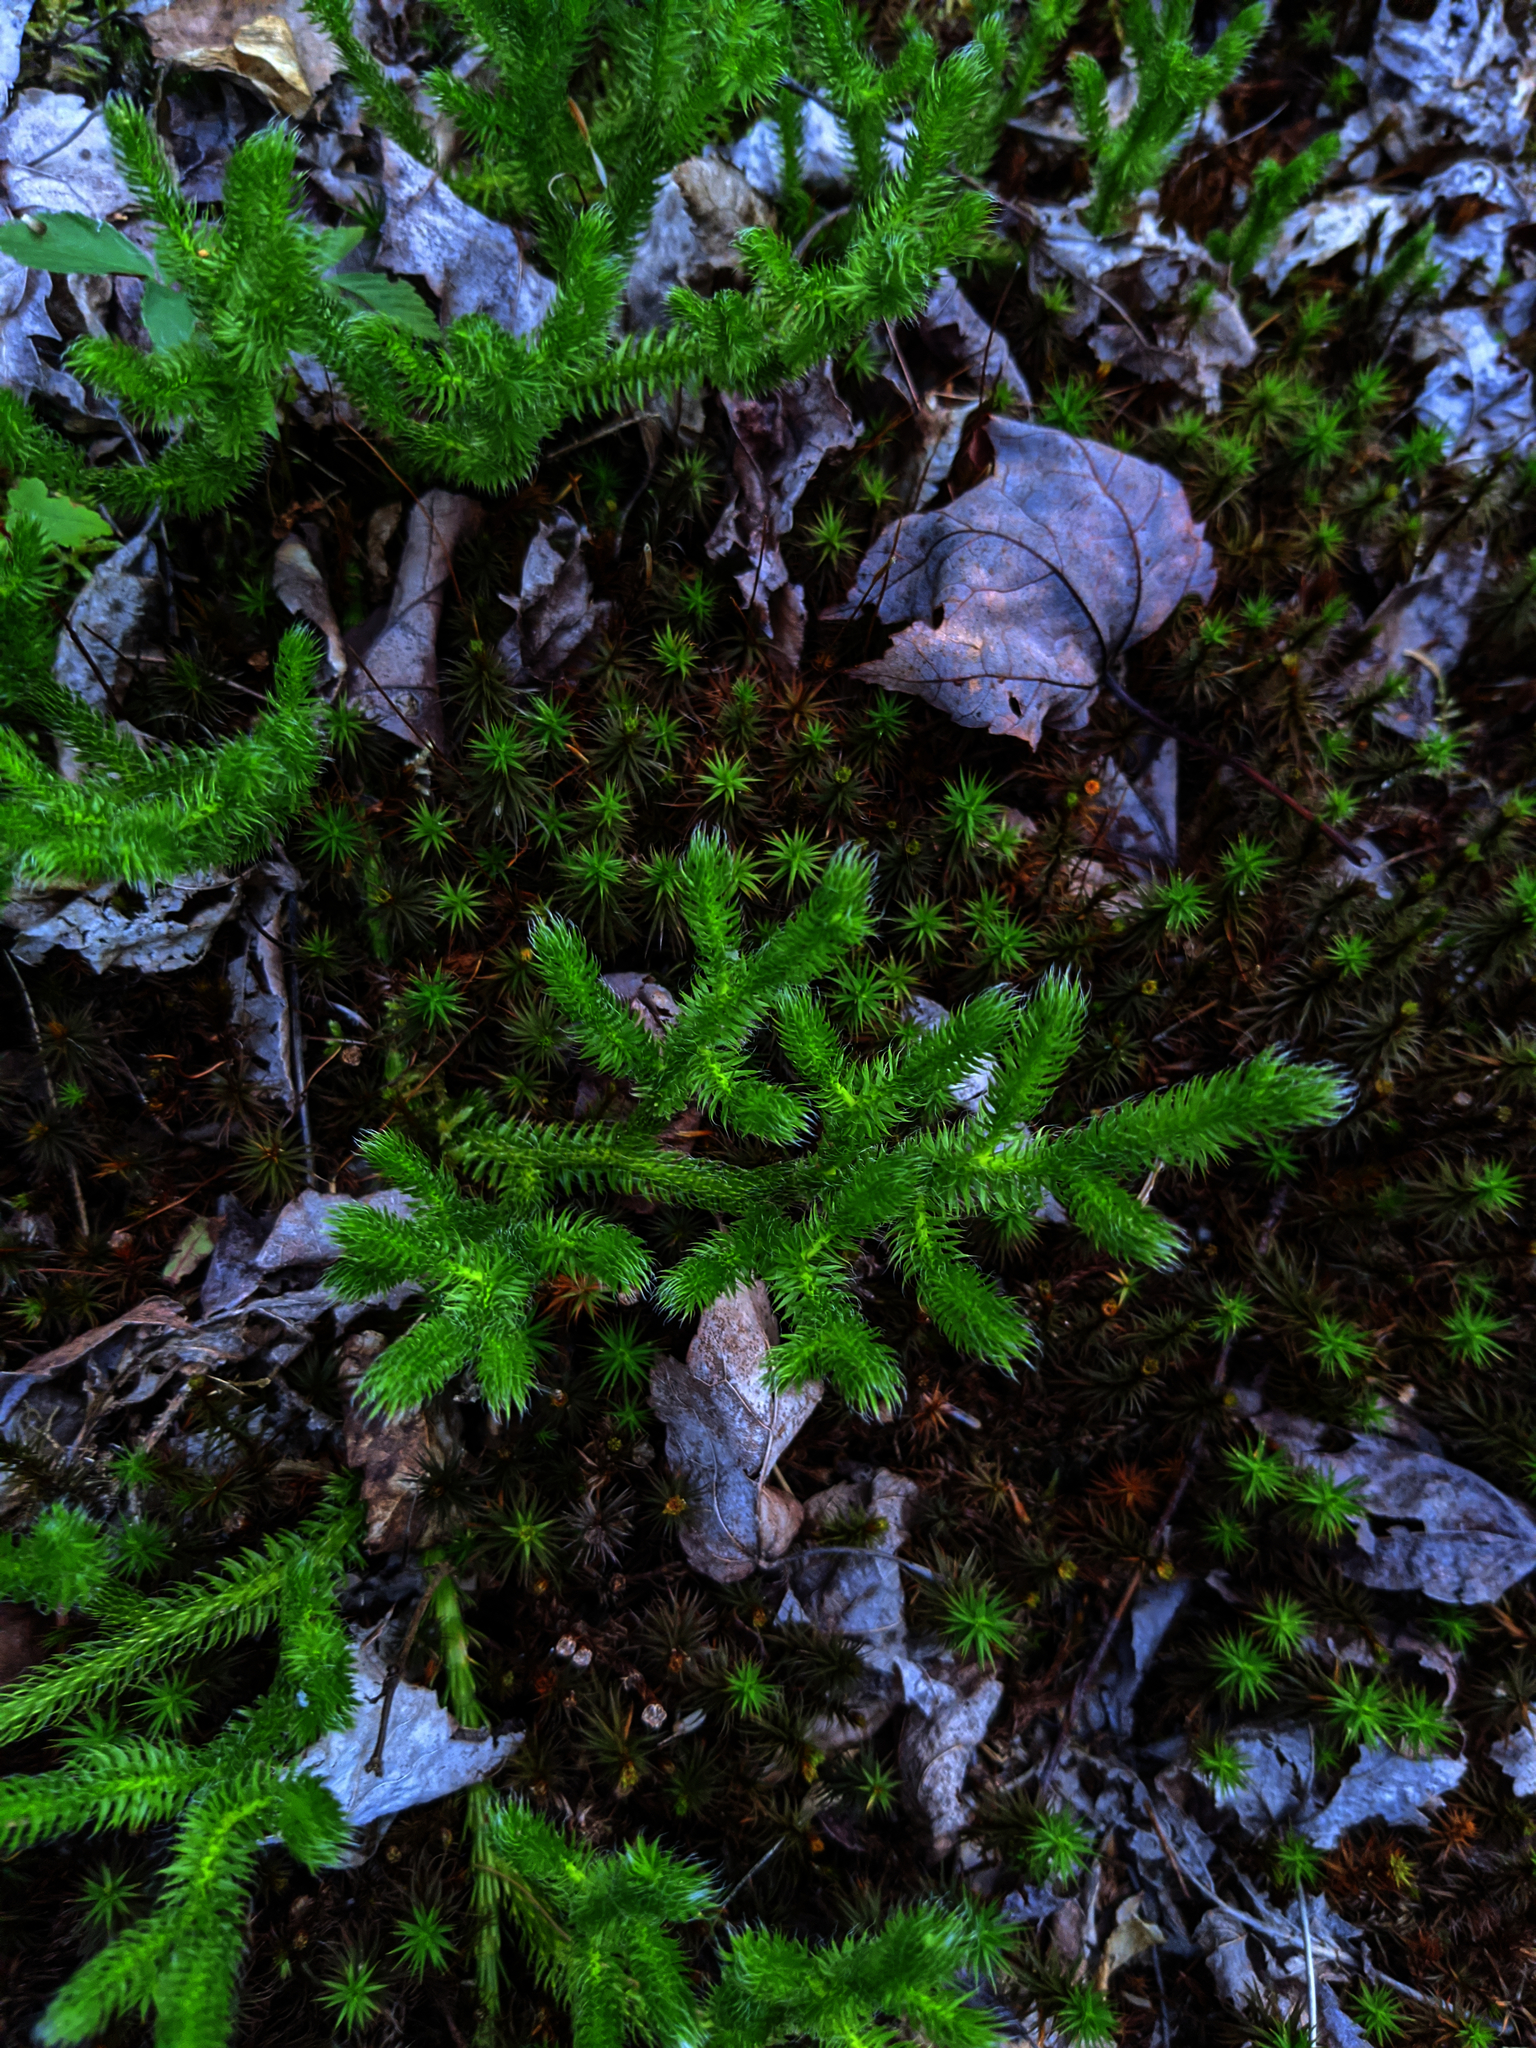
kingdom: Plantae
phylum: Tracheophyta
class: Lycopodiopsida
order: Lycopodiales
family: Lycopodiaceae
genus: Lycopodium
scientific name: Lycopodium clavatum
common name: Stag's-horn clubmoss
